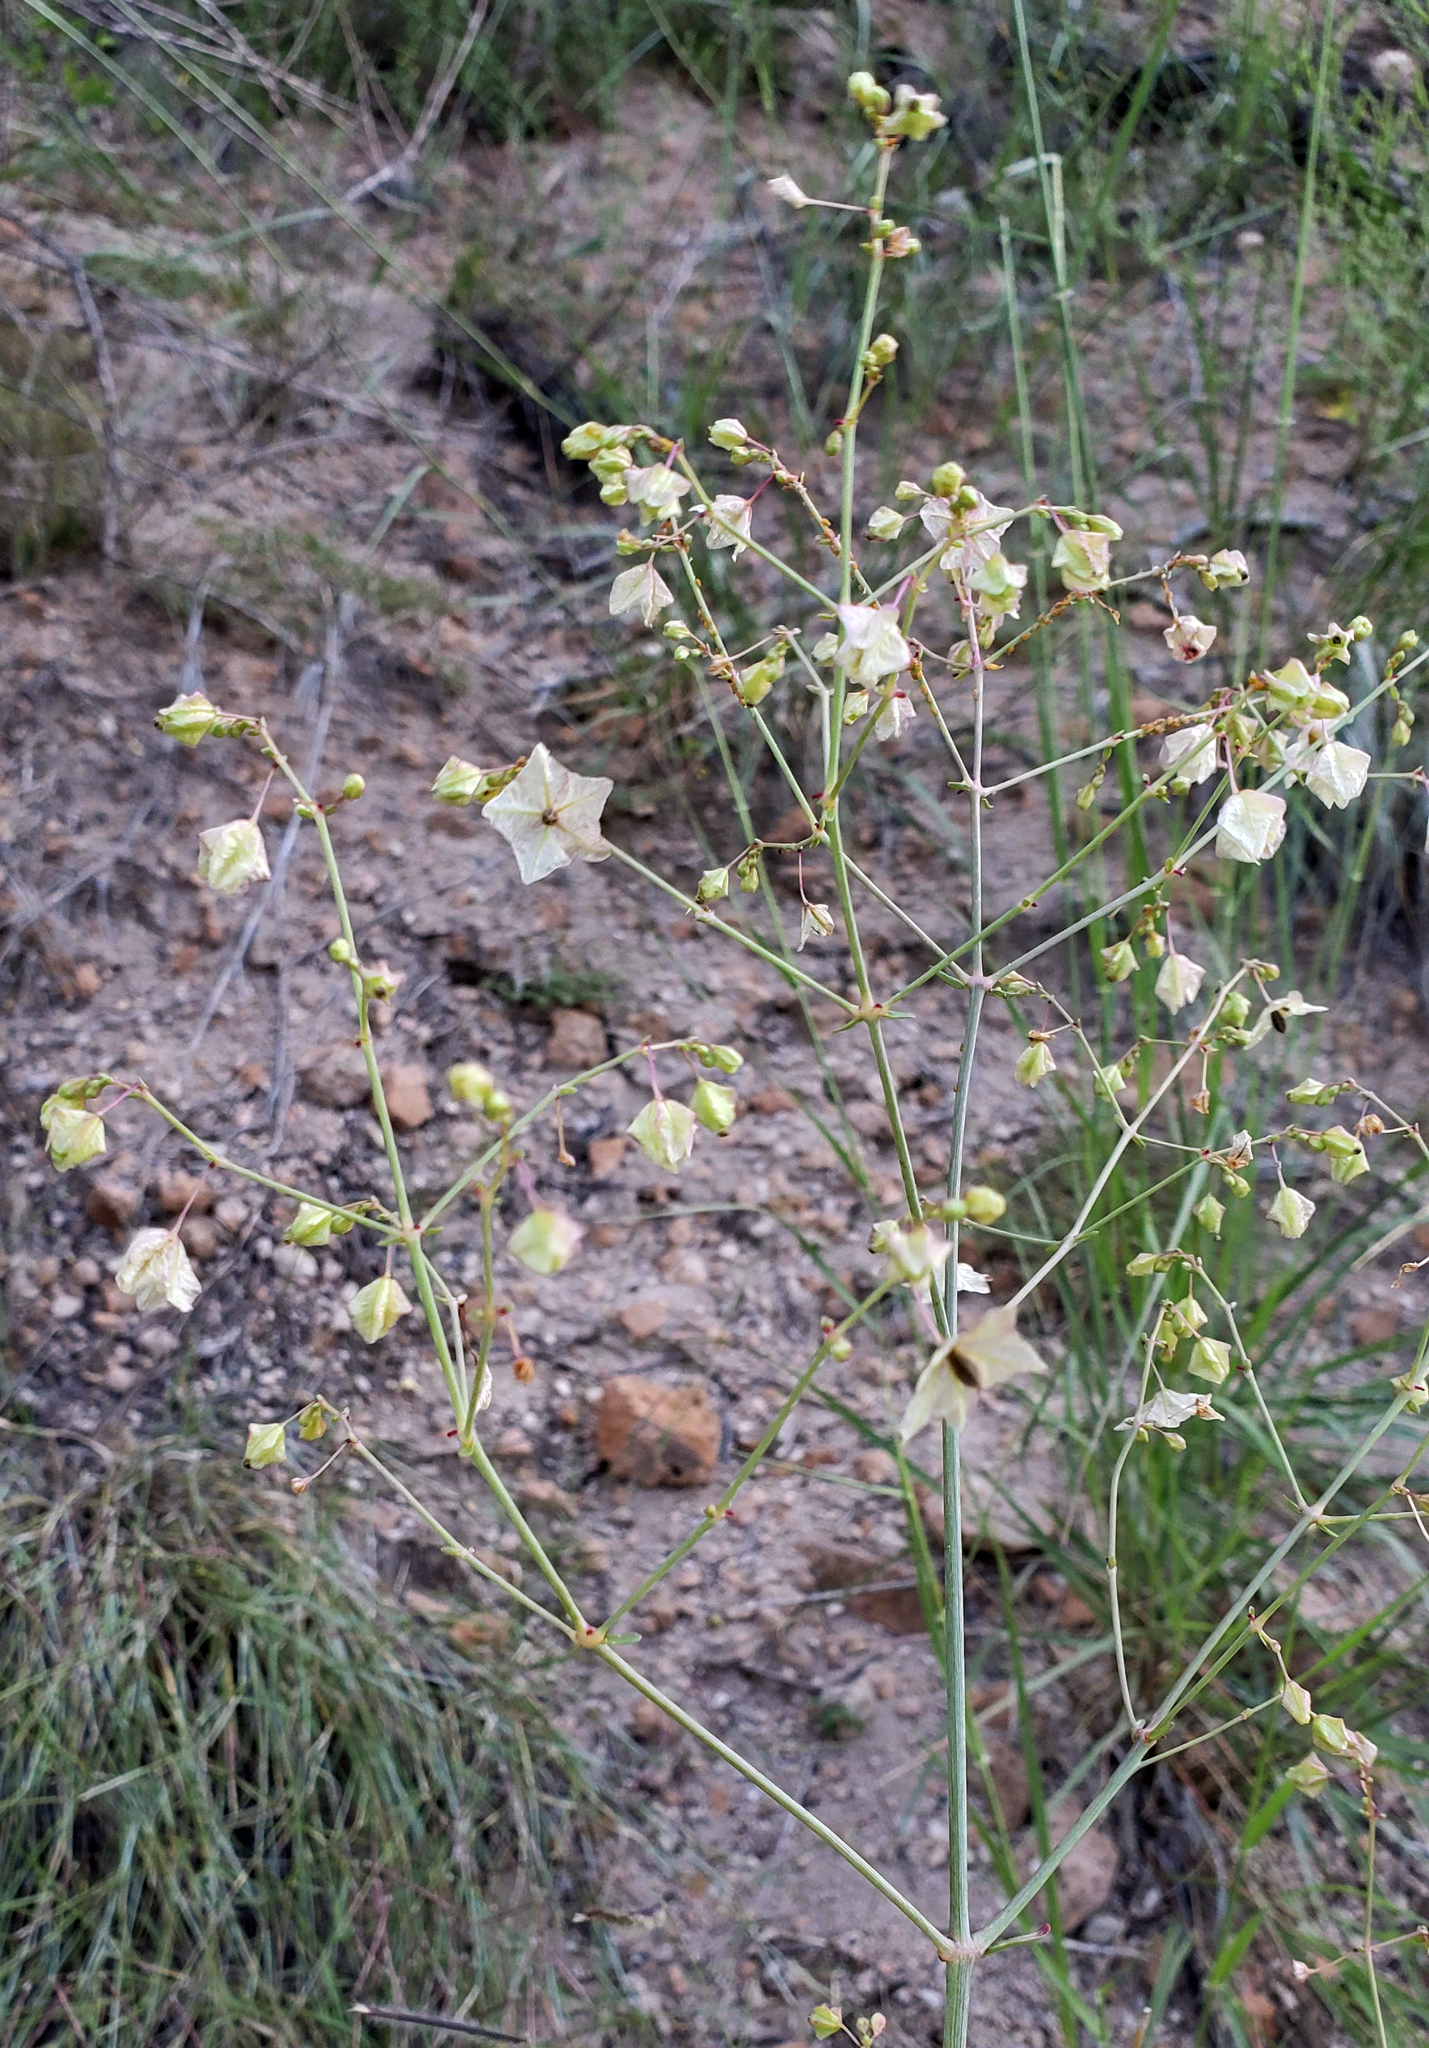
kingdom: Plantae
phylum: Tracheophyta
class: Magnoliopsida
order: Caryophyllales
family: Nyctaginaceae
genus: Mirabilis
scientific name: Mirabilis linearis
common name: Linear-leaved four-o'clock
